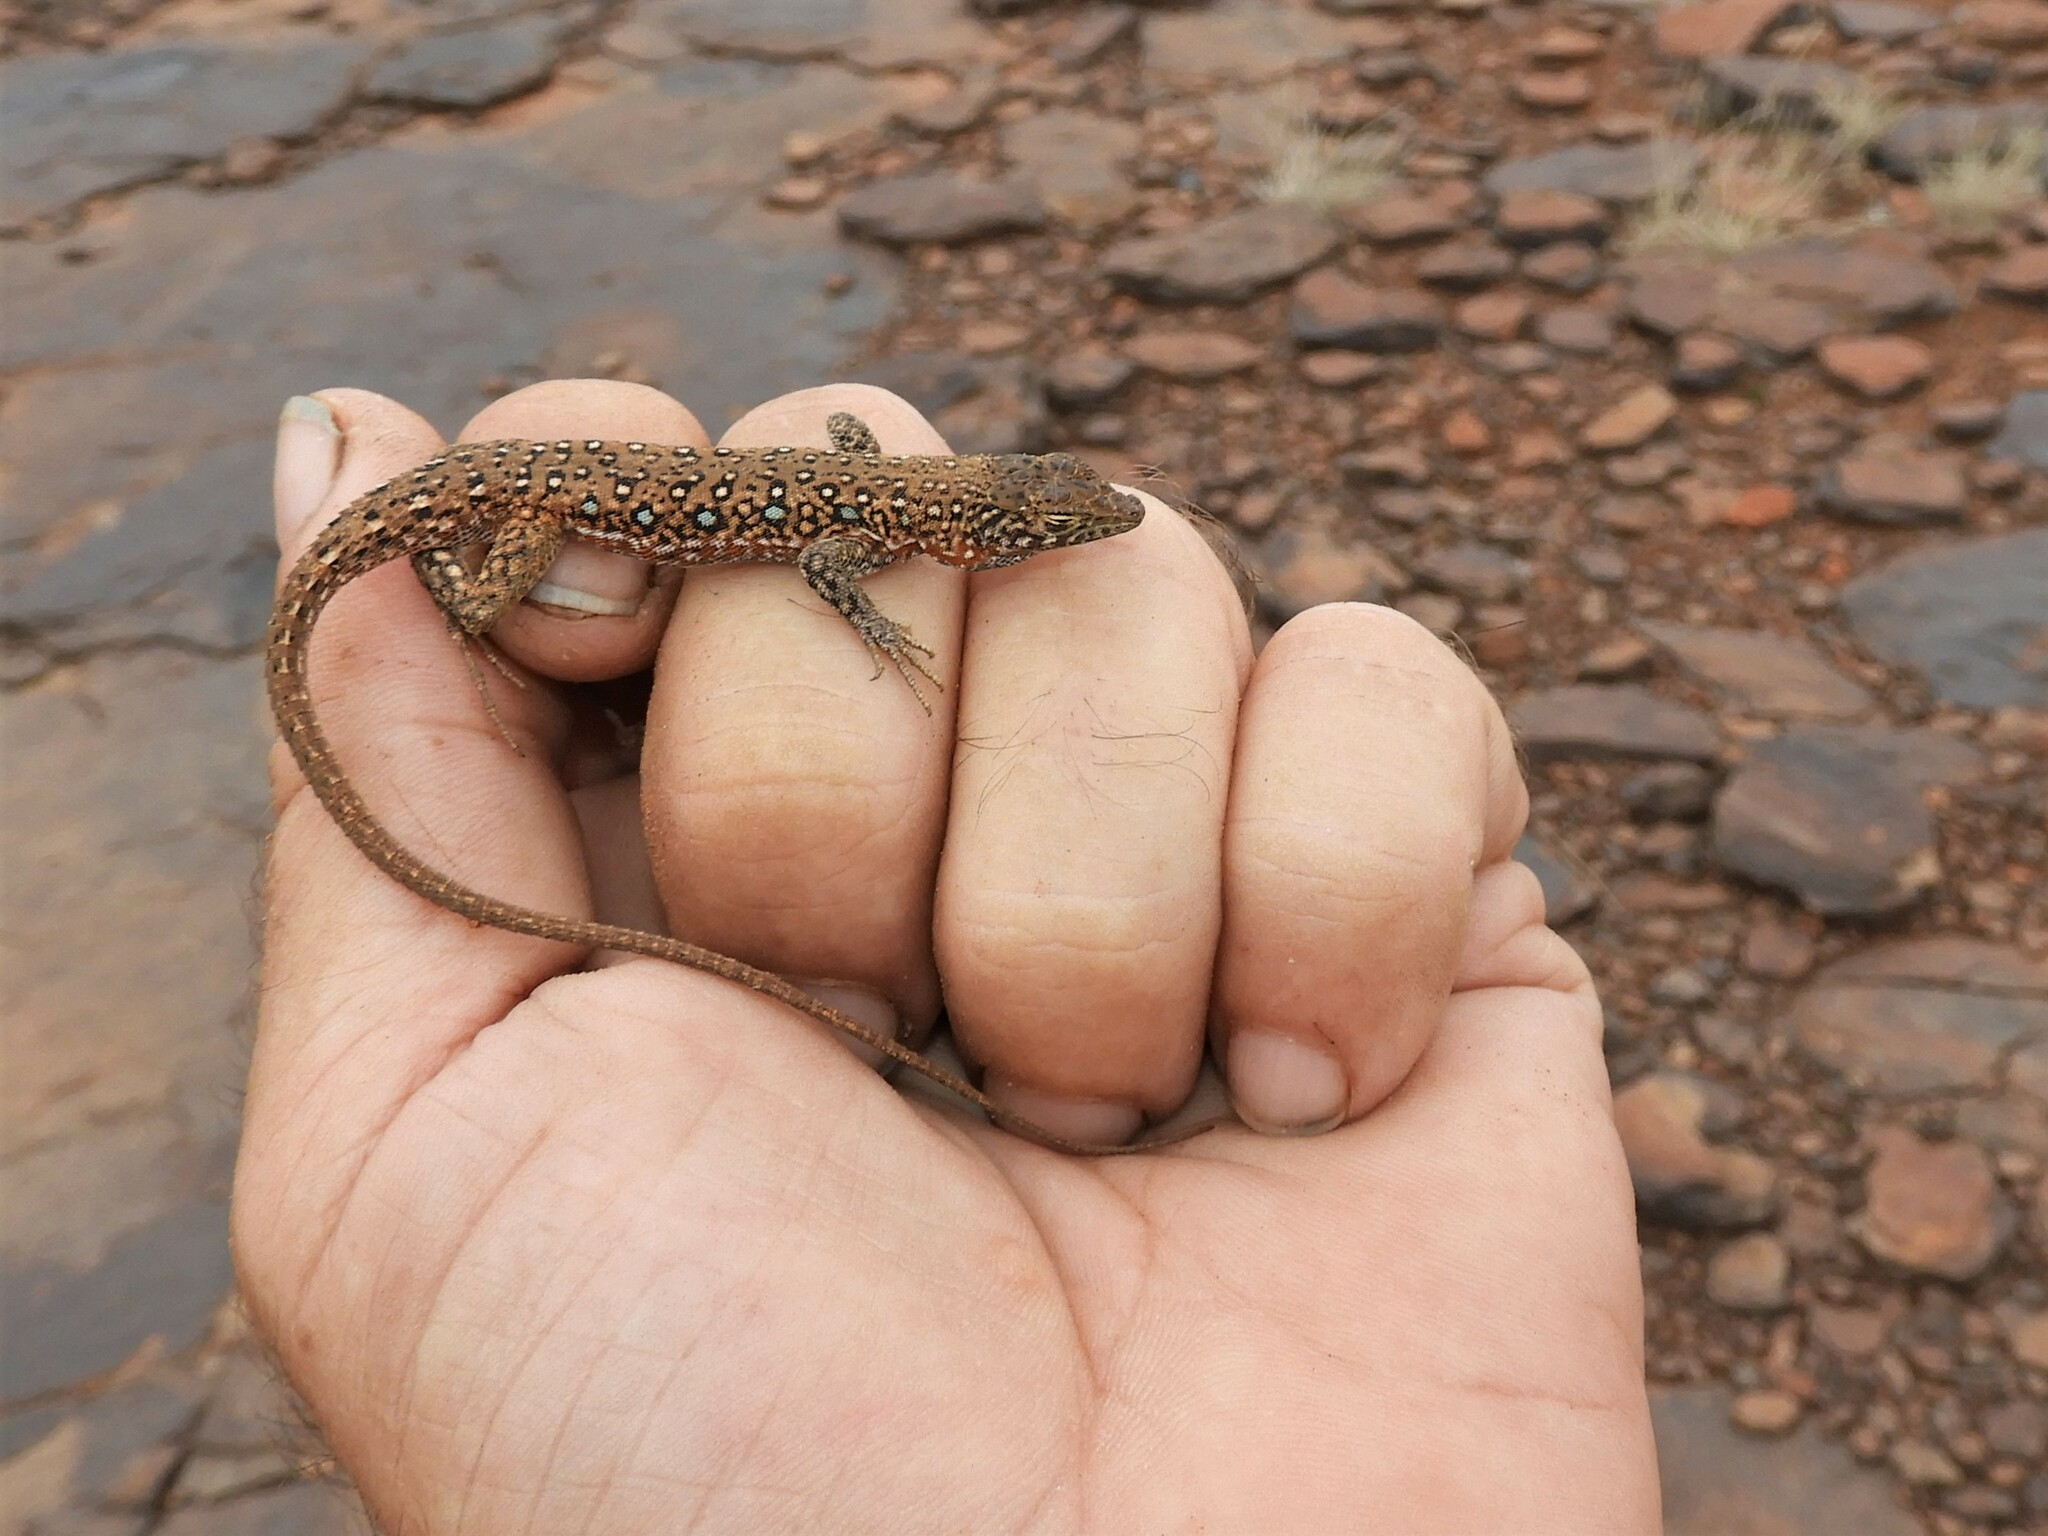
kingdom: Animalia
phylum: Chordata
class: Squamata
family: Lacertidae
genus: Pedioplanis
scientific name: Pedioplanis lineoocellata
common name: Spotted sand lizard
